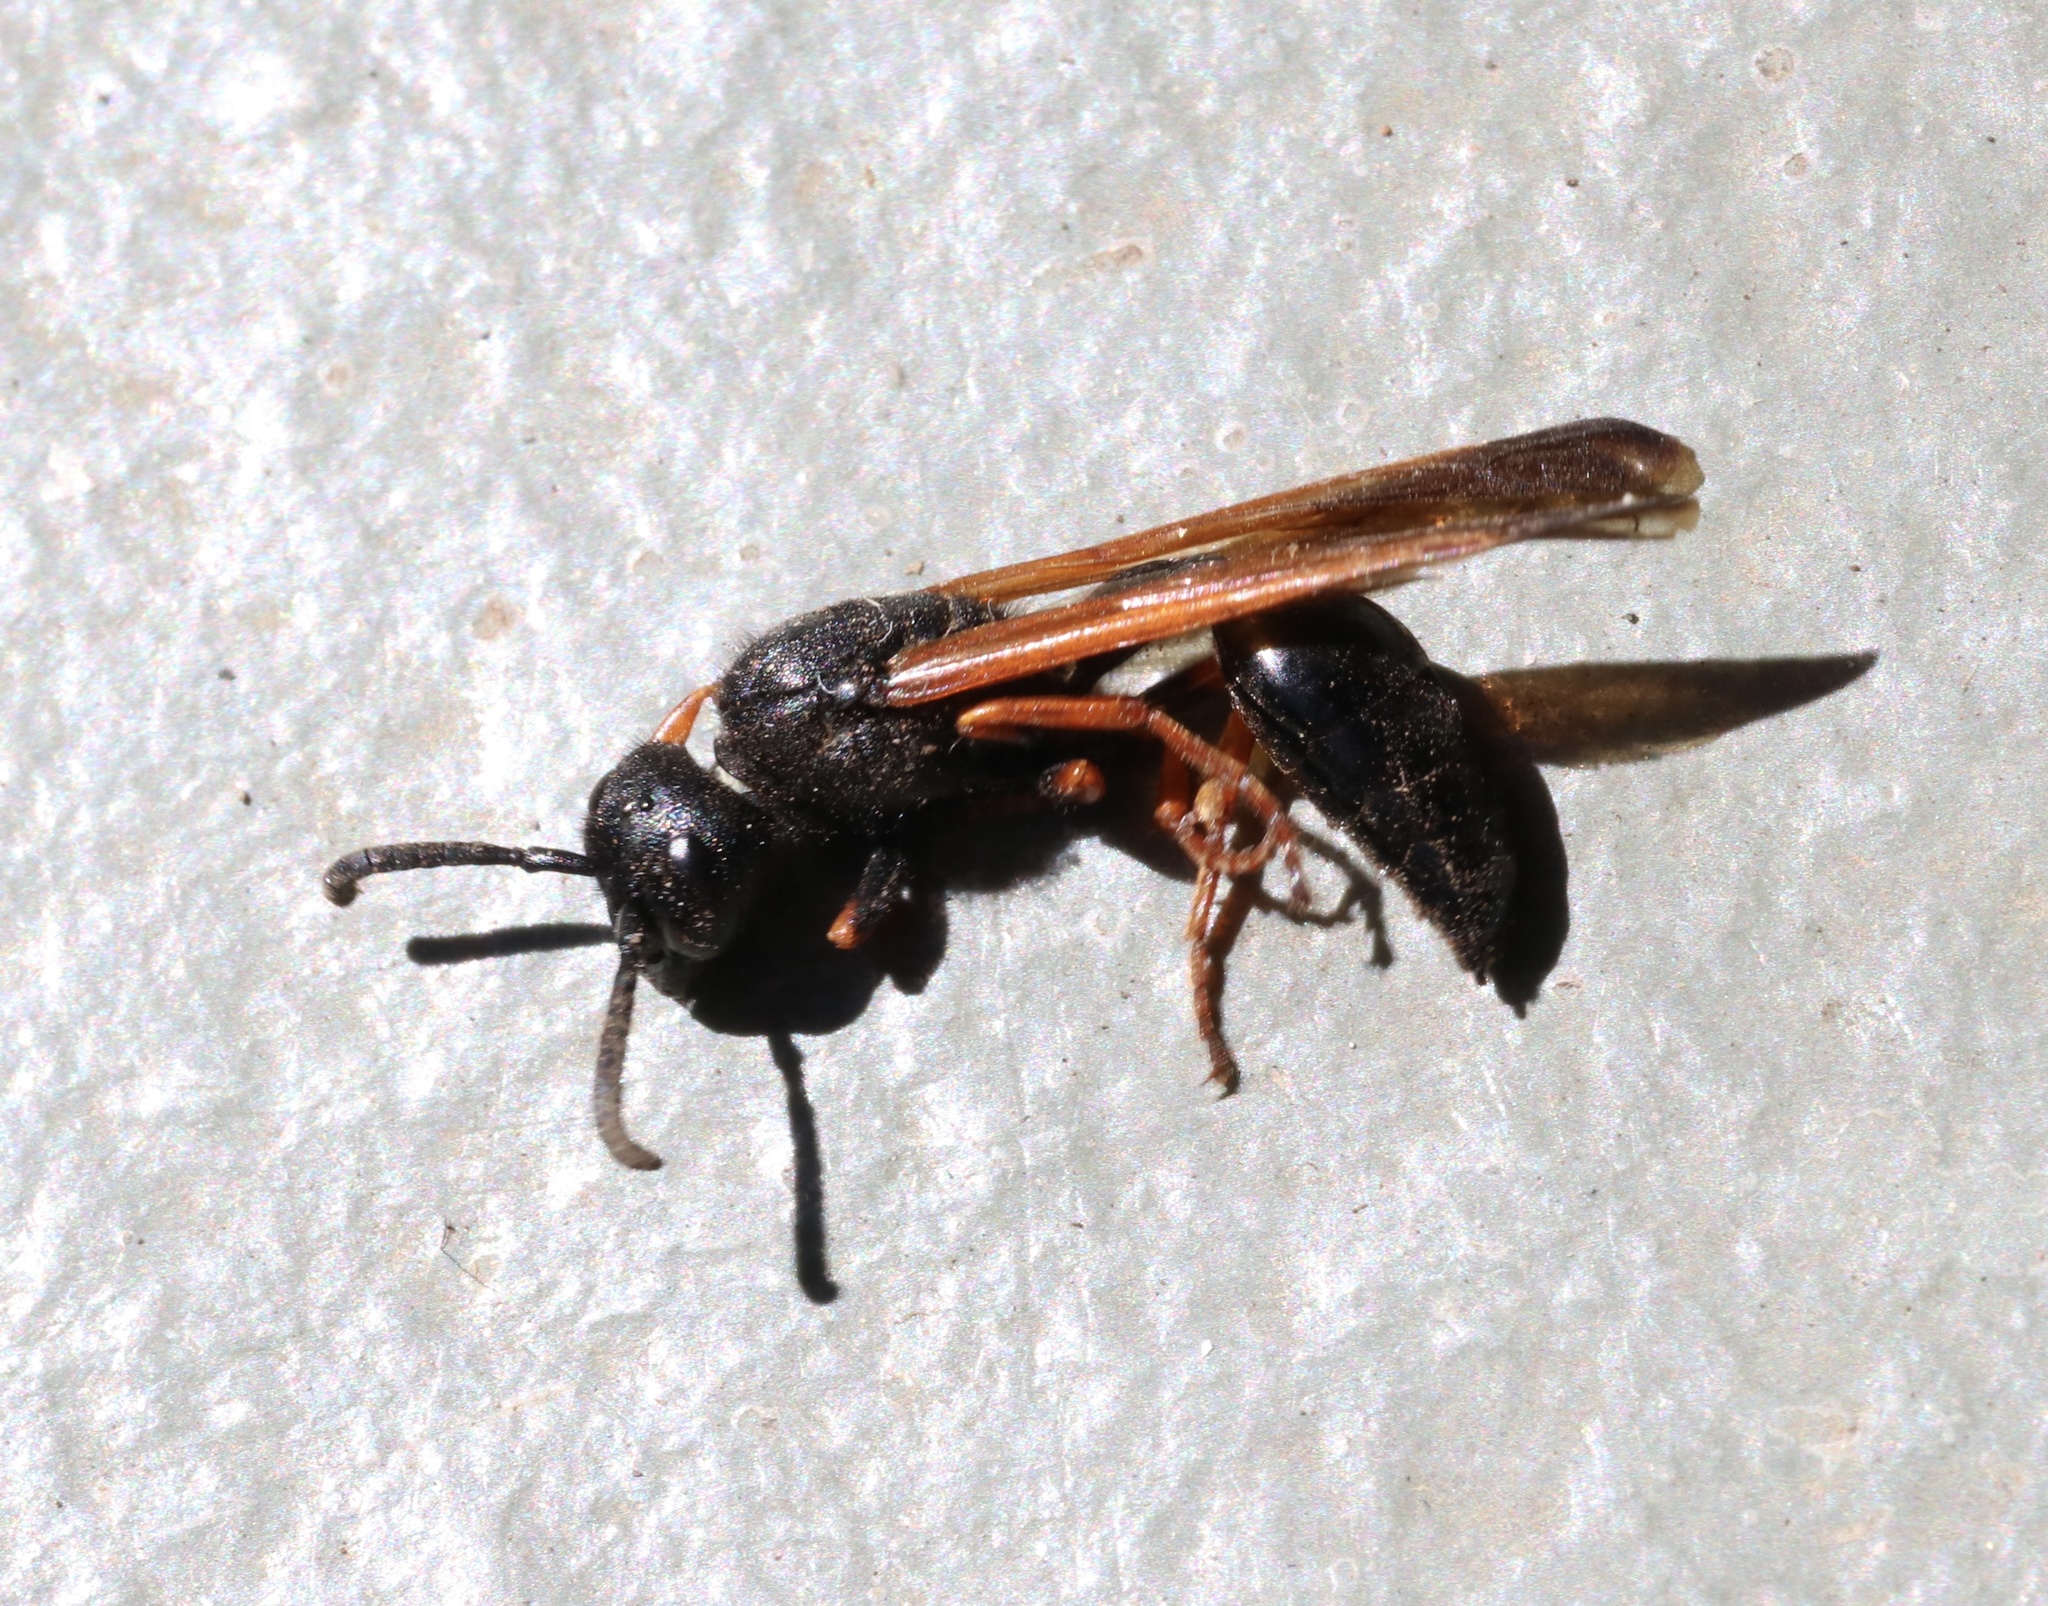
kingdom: Animalia
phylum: Arthropoda
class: Insecta
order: Hymenoptera
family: Eumenidae
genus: Protodiscoelius
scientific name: Protodiscoelius merula
